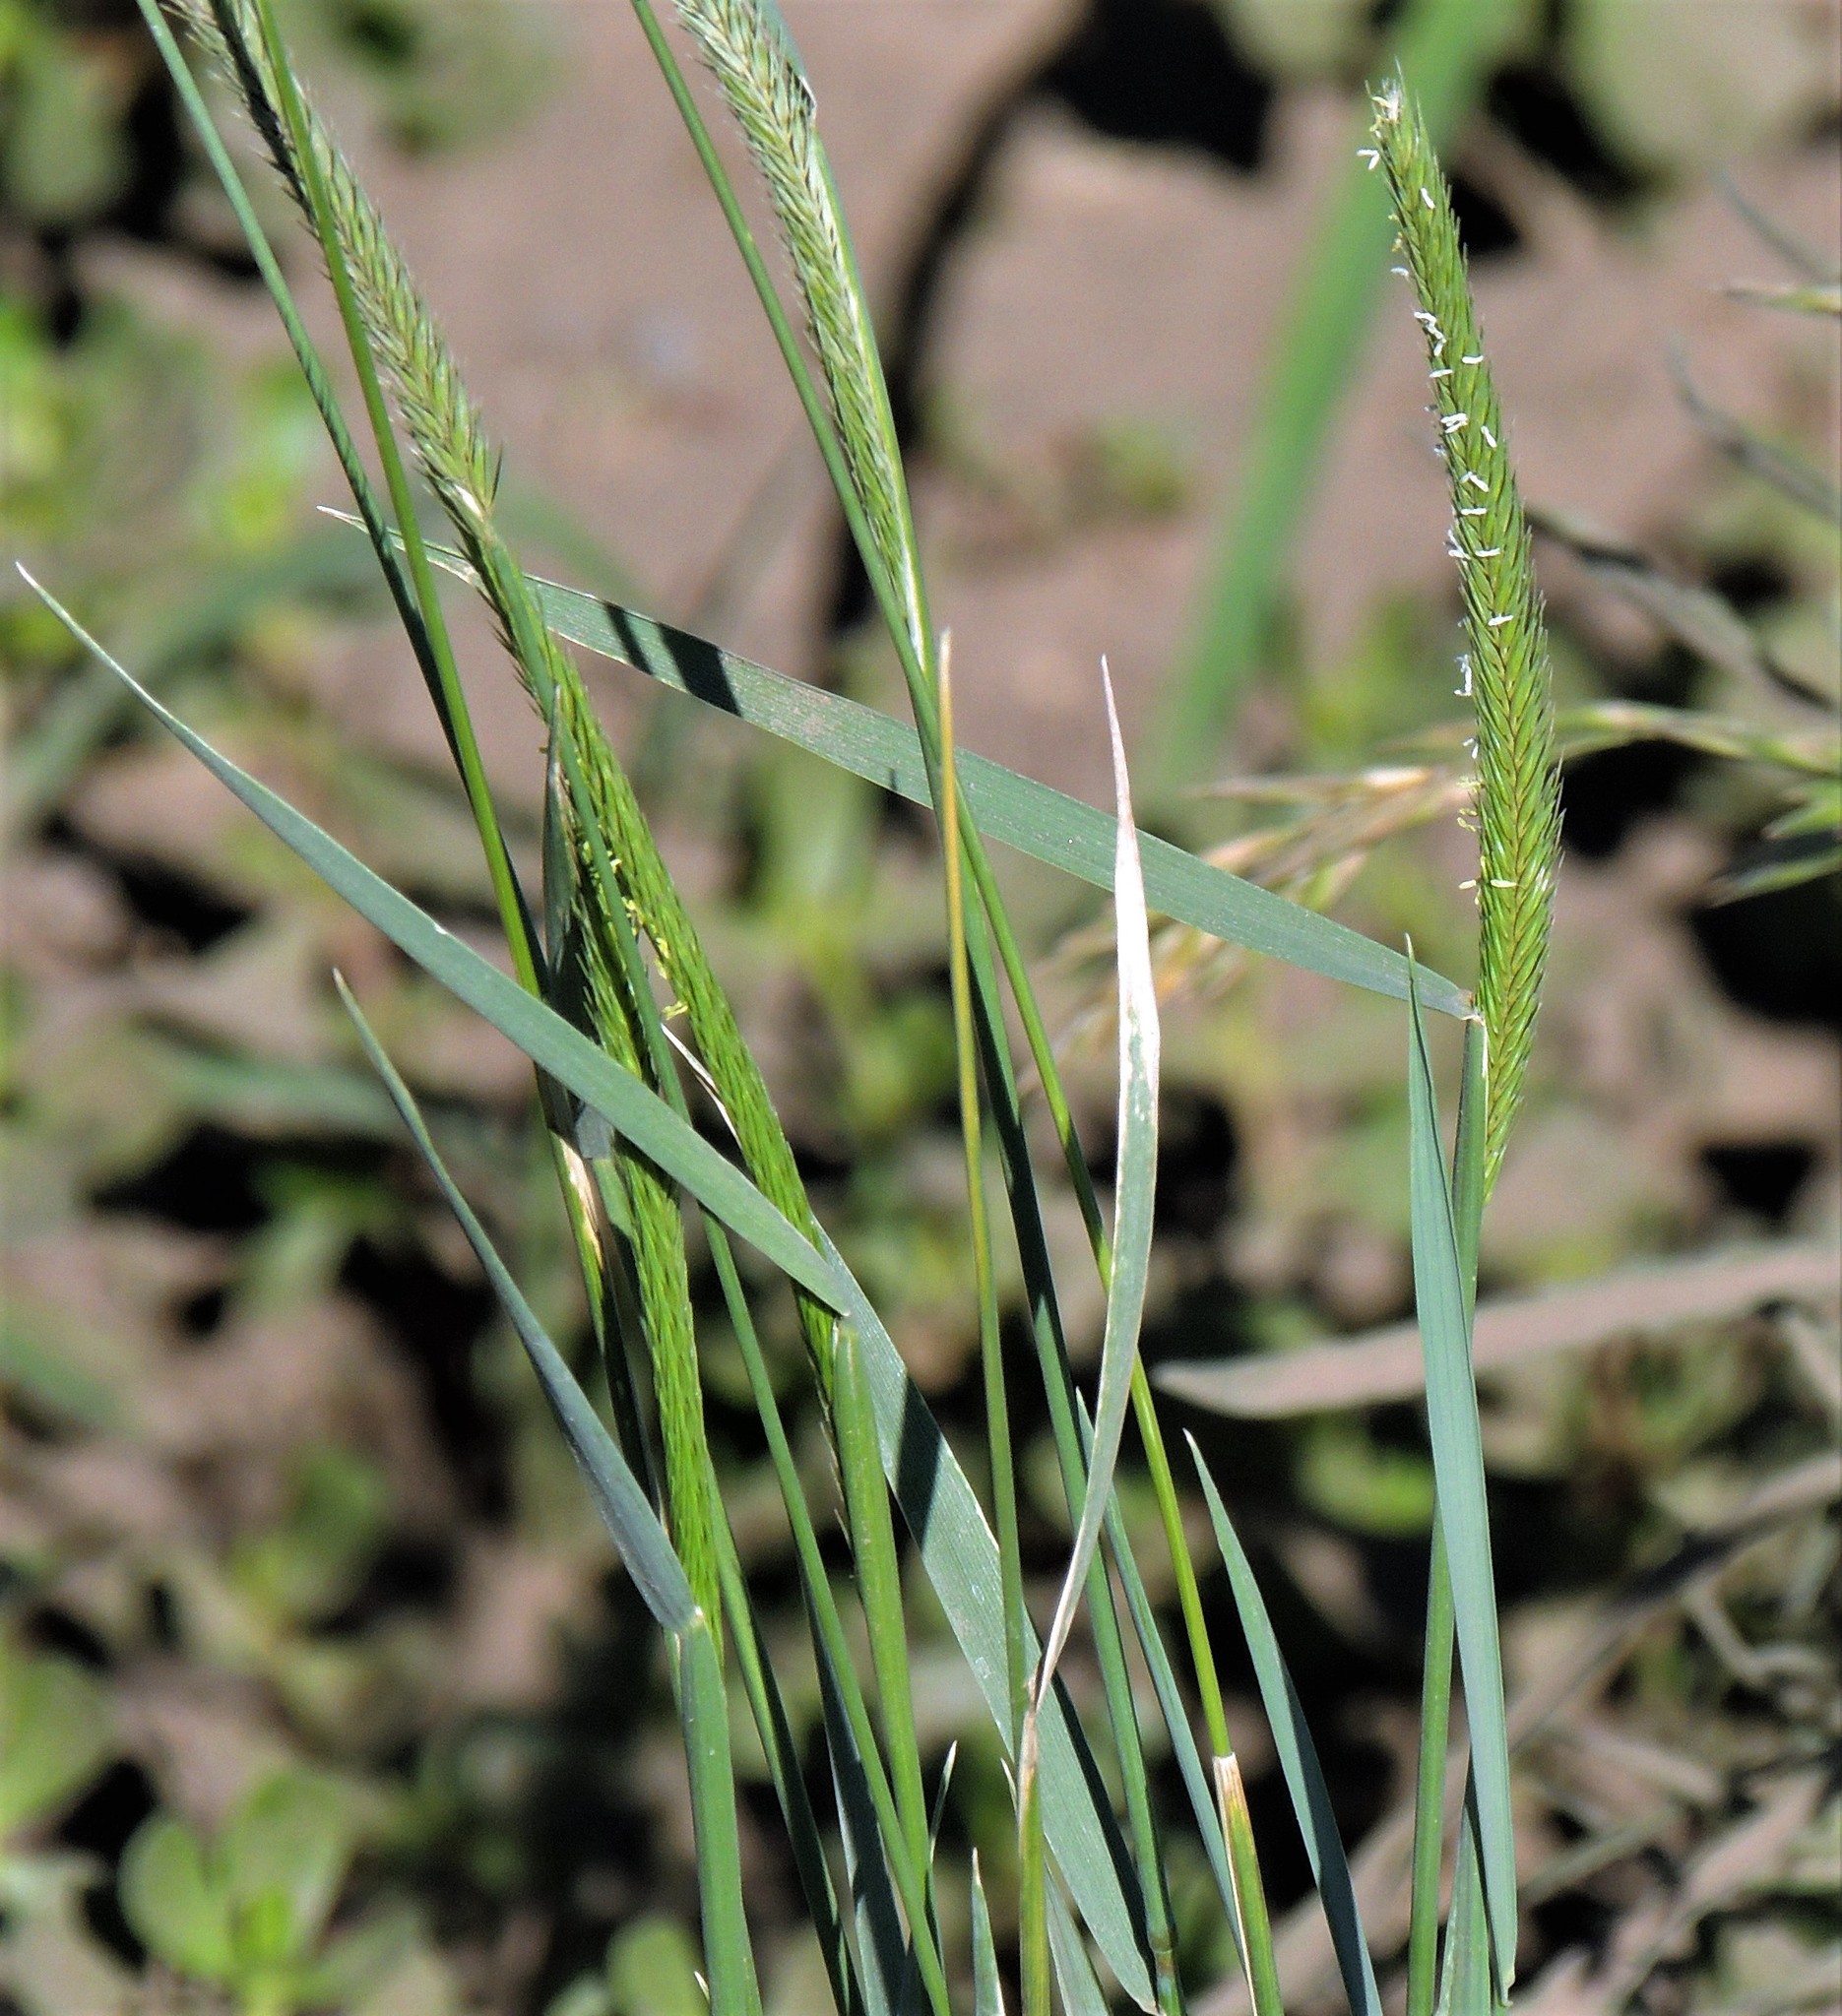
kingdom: Plantae
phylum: Tracheophyta
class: Liliopsida
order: Poales
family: Poaceae
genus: Hordeum
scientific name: Hordeum stenostachys
